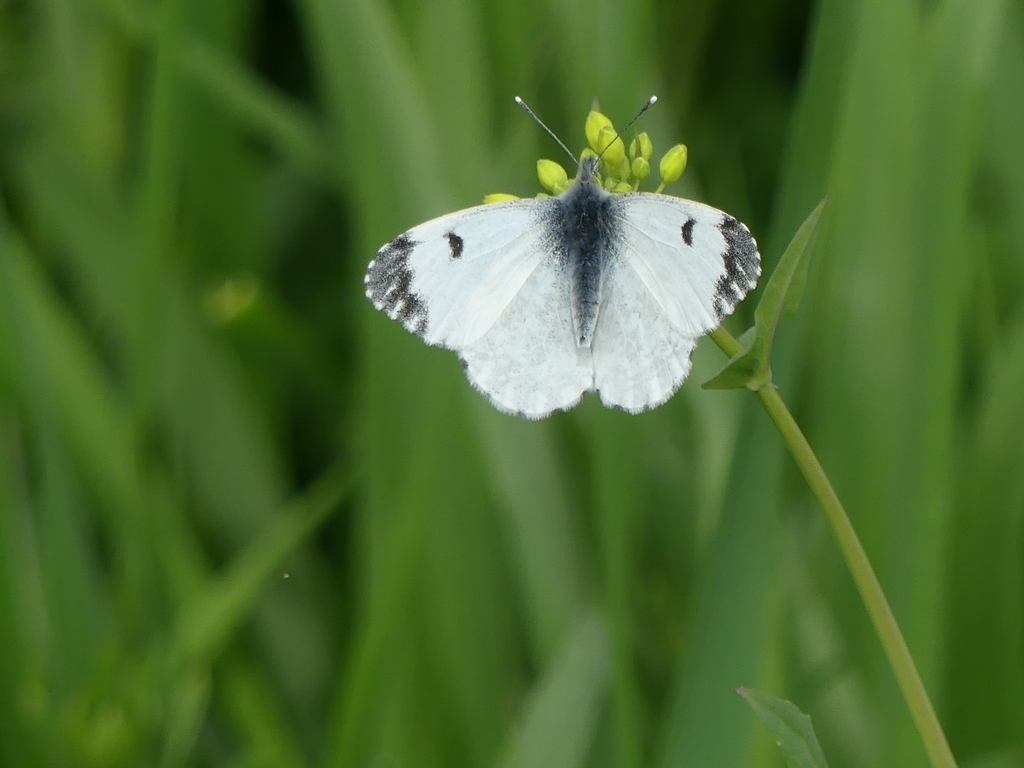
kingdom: Animalia
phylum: Arthropoda
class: Insecta
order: Lepidoptera
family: Pieridae
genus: Anthocharis
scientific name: Anthocharis cardamines
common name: Orange-tip
